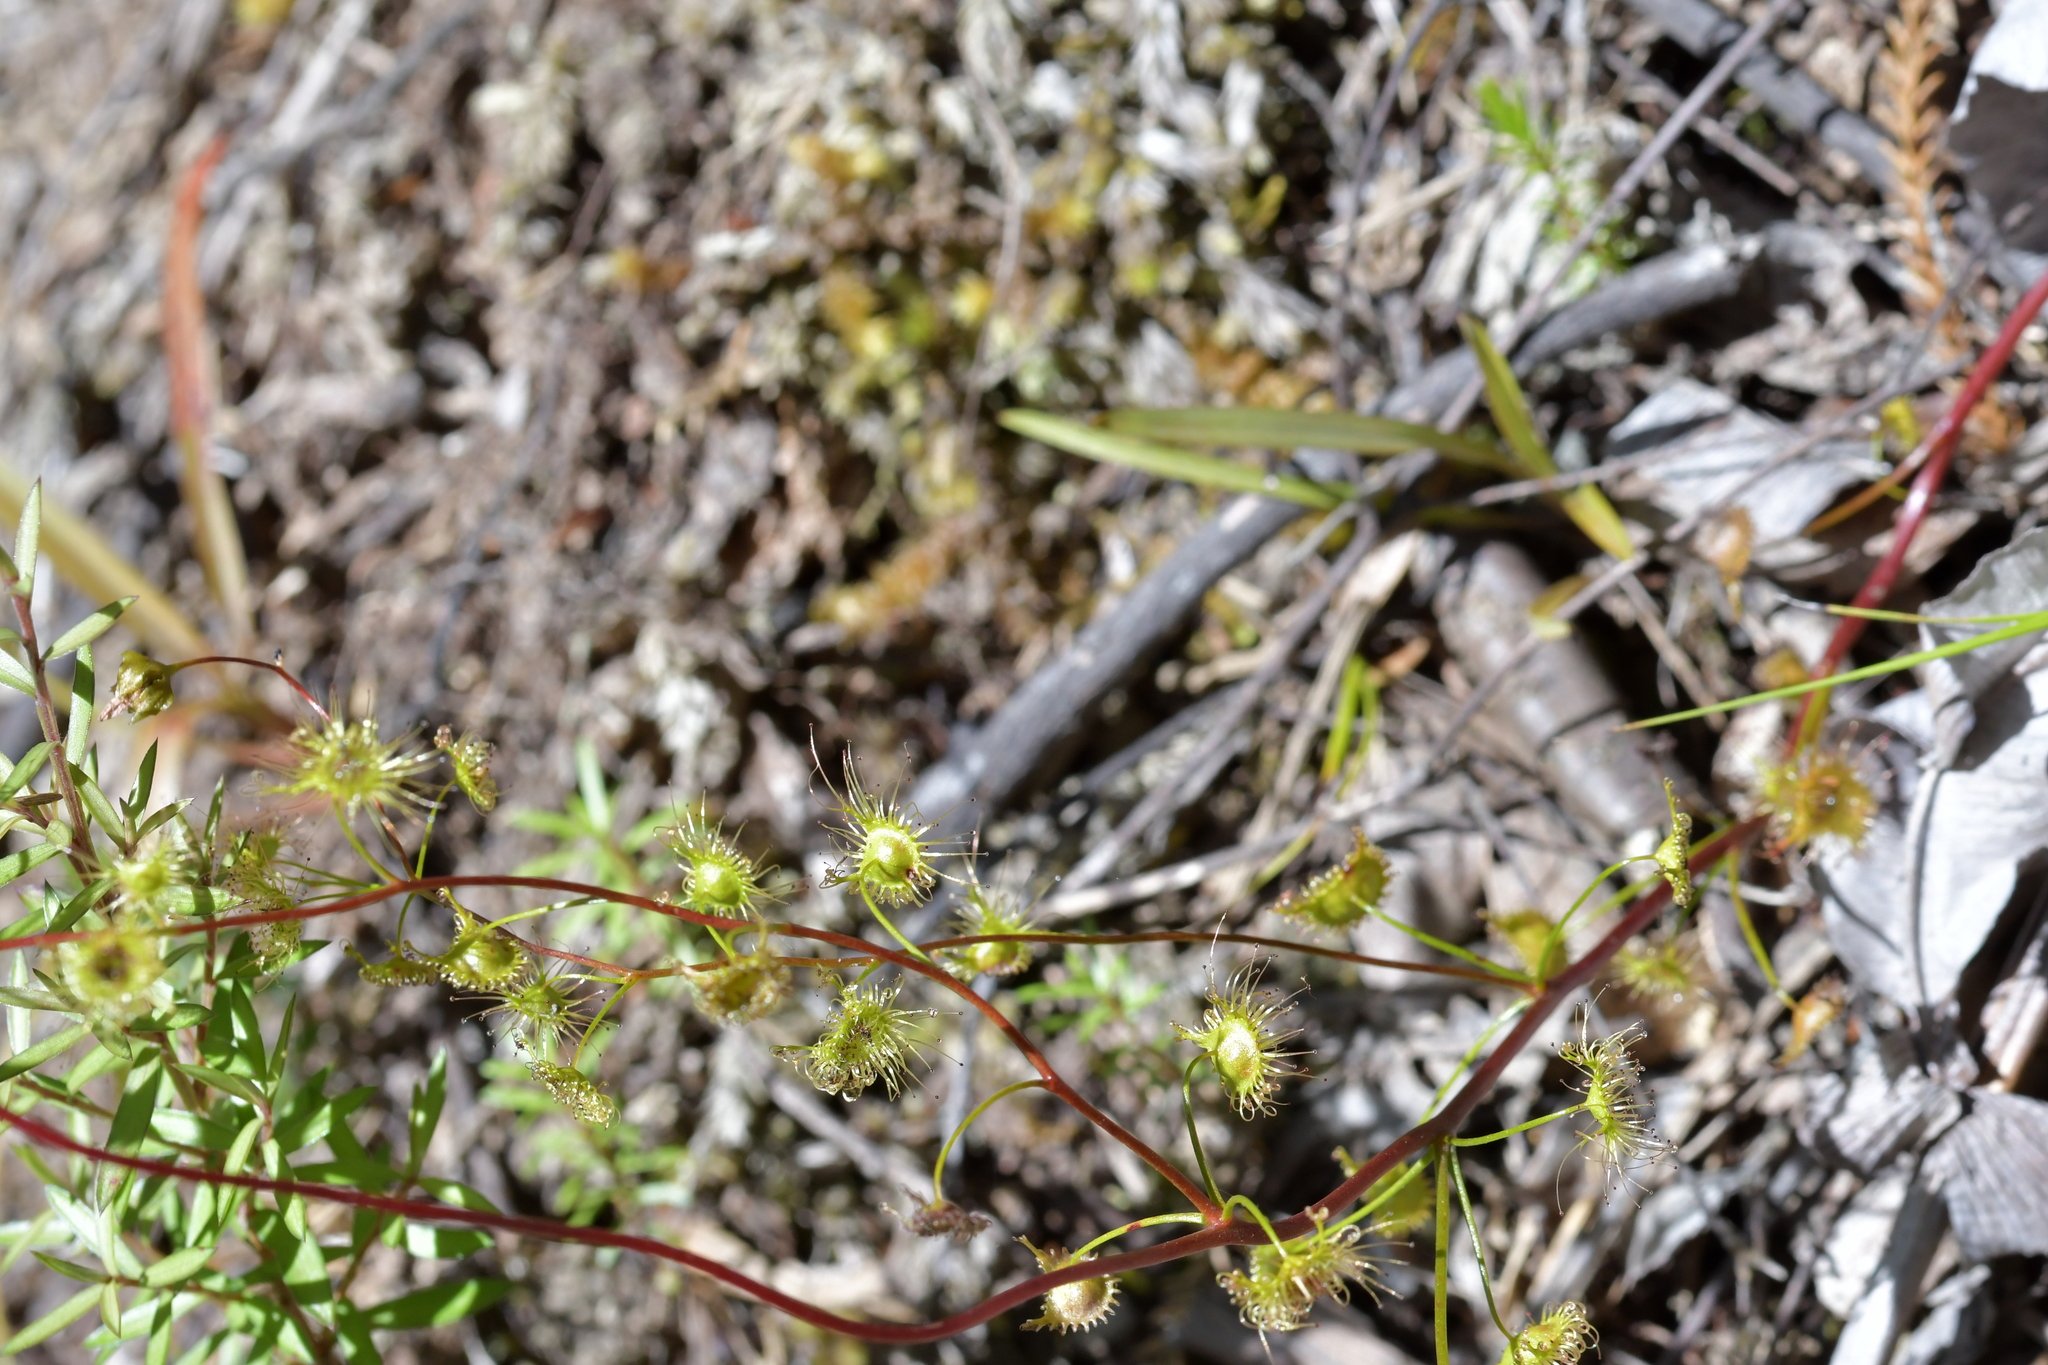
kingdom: Plantae
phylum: Tracheophyta
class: Magnoliopsida
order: Caryophyllales
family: Droseraceae
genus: Drosera
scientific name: Drosera peltata
